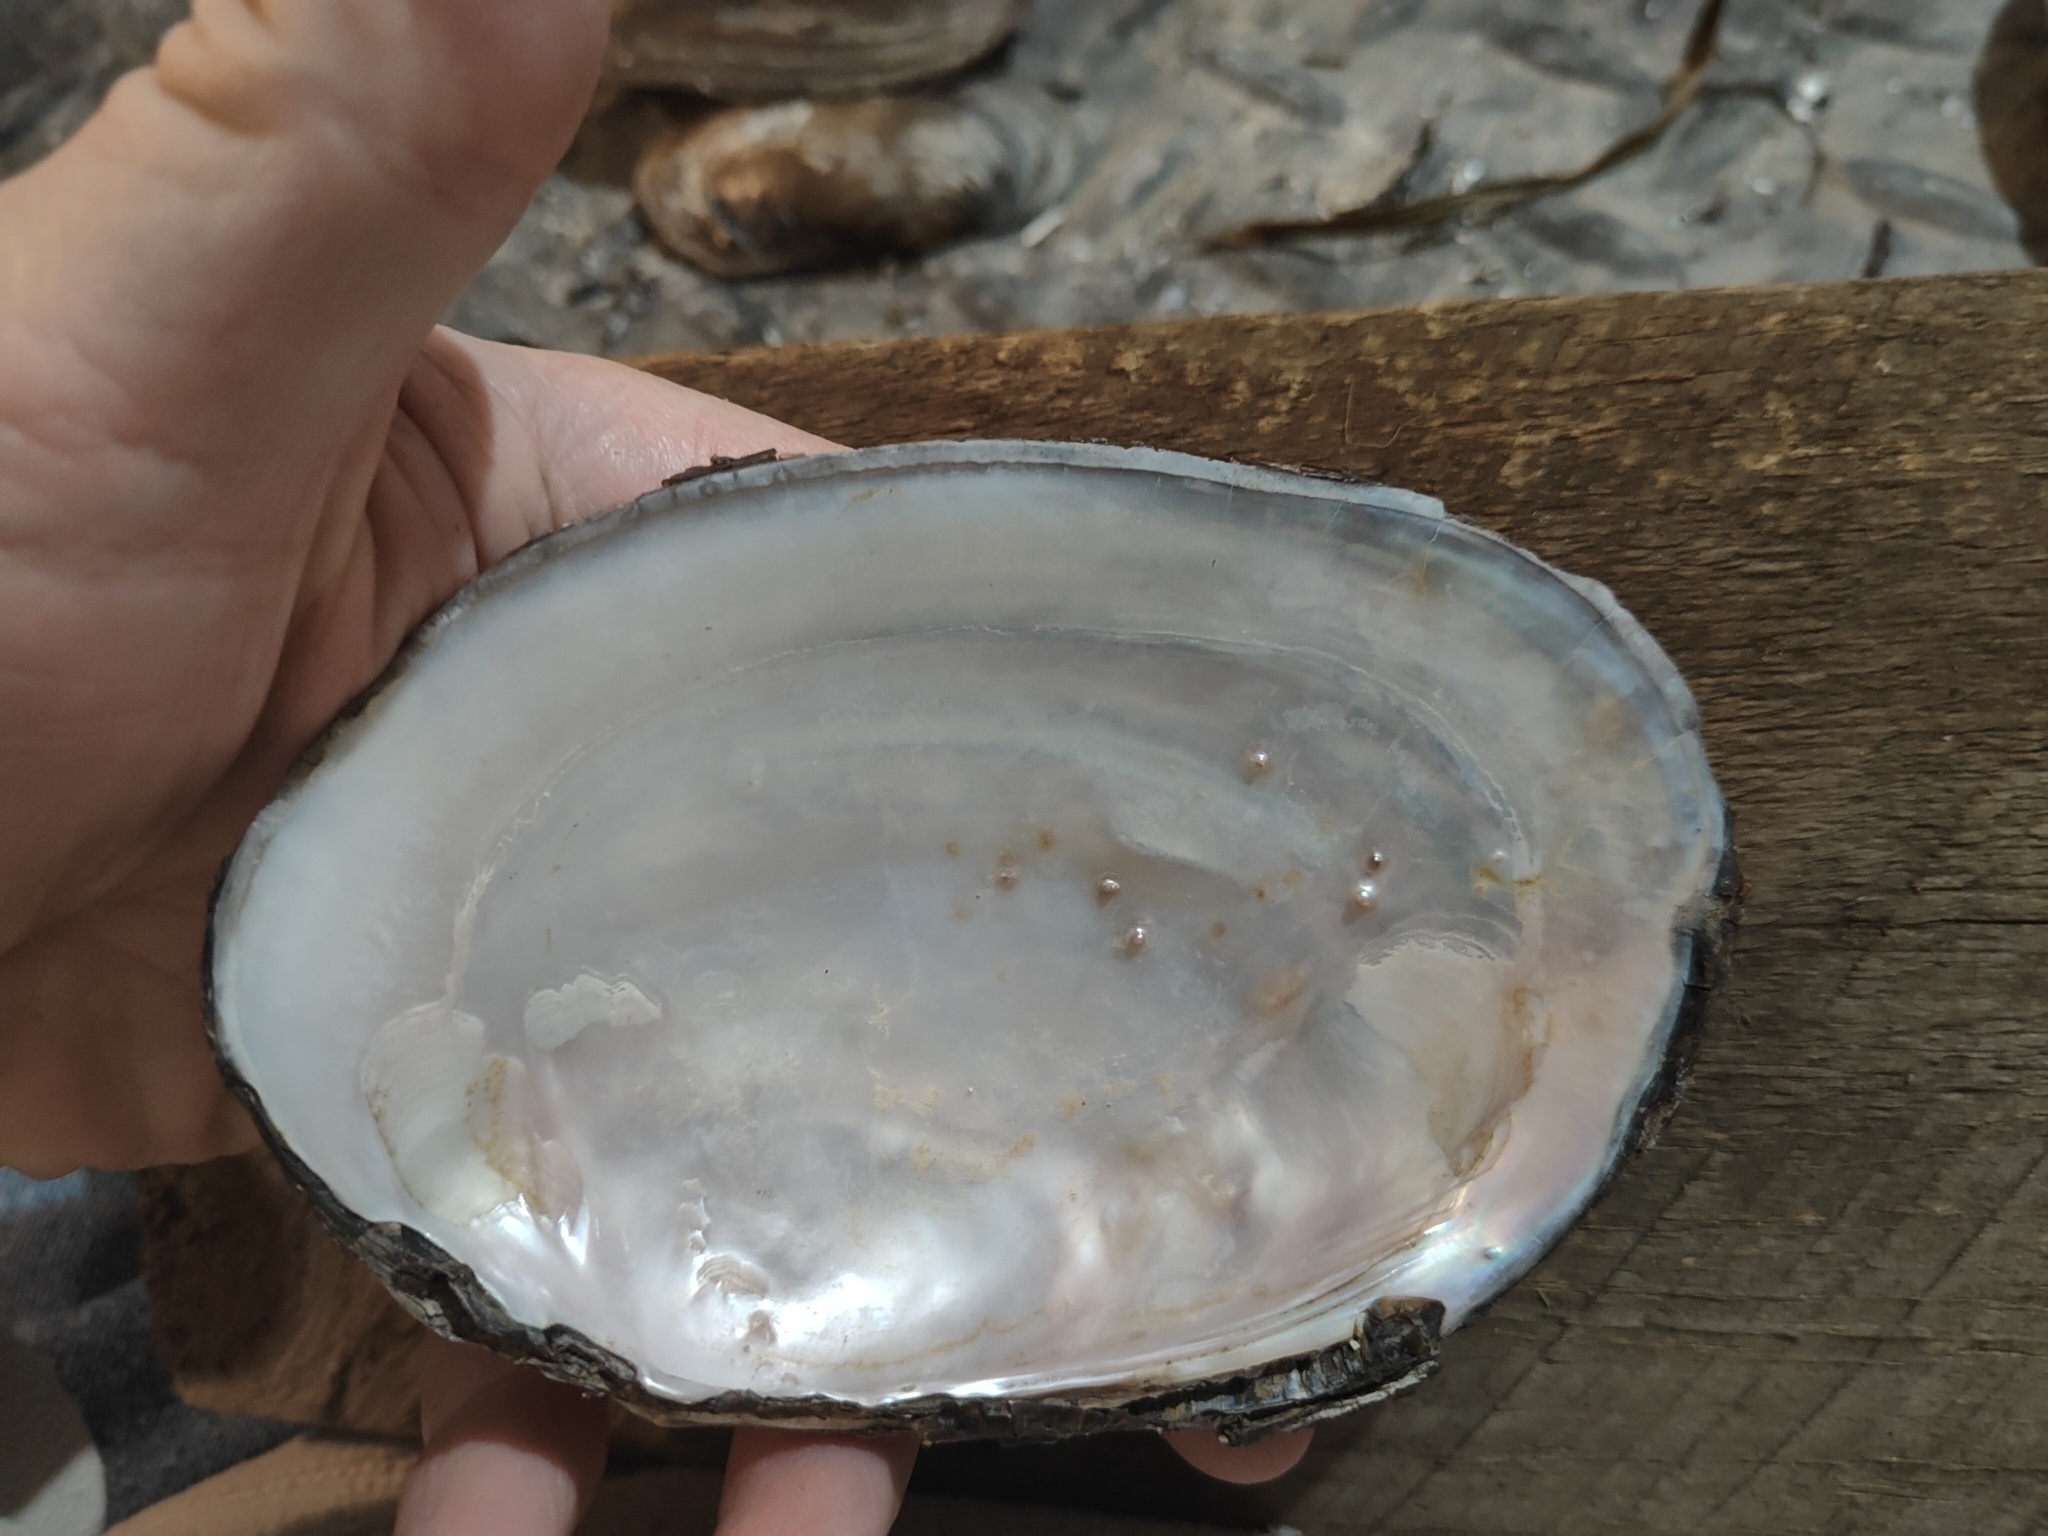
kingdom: Animalia
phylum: Mollusca
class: Bivalvia
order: Unionida
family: Unionidae
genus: Potamilus
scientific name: Potamilus fragilis
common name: Fragile papershell
